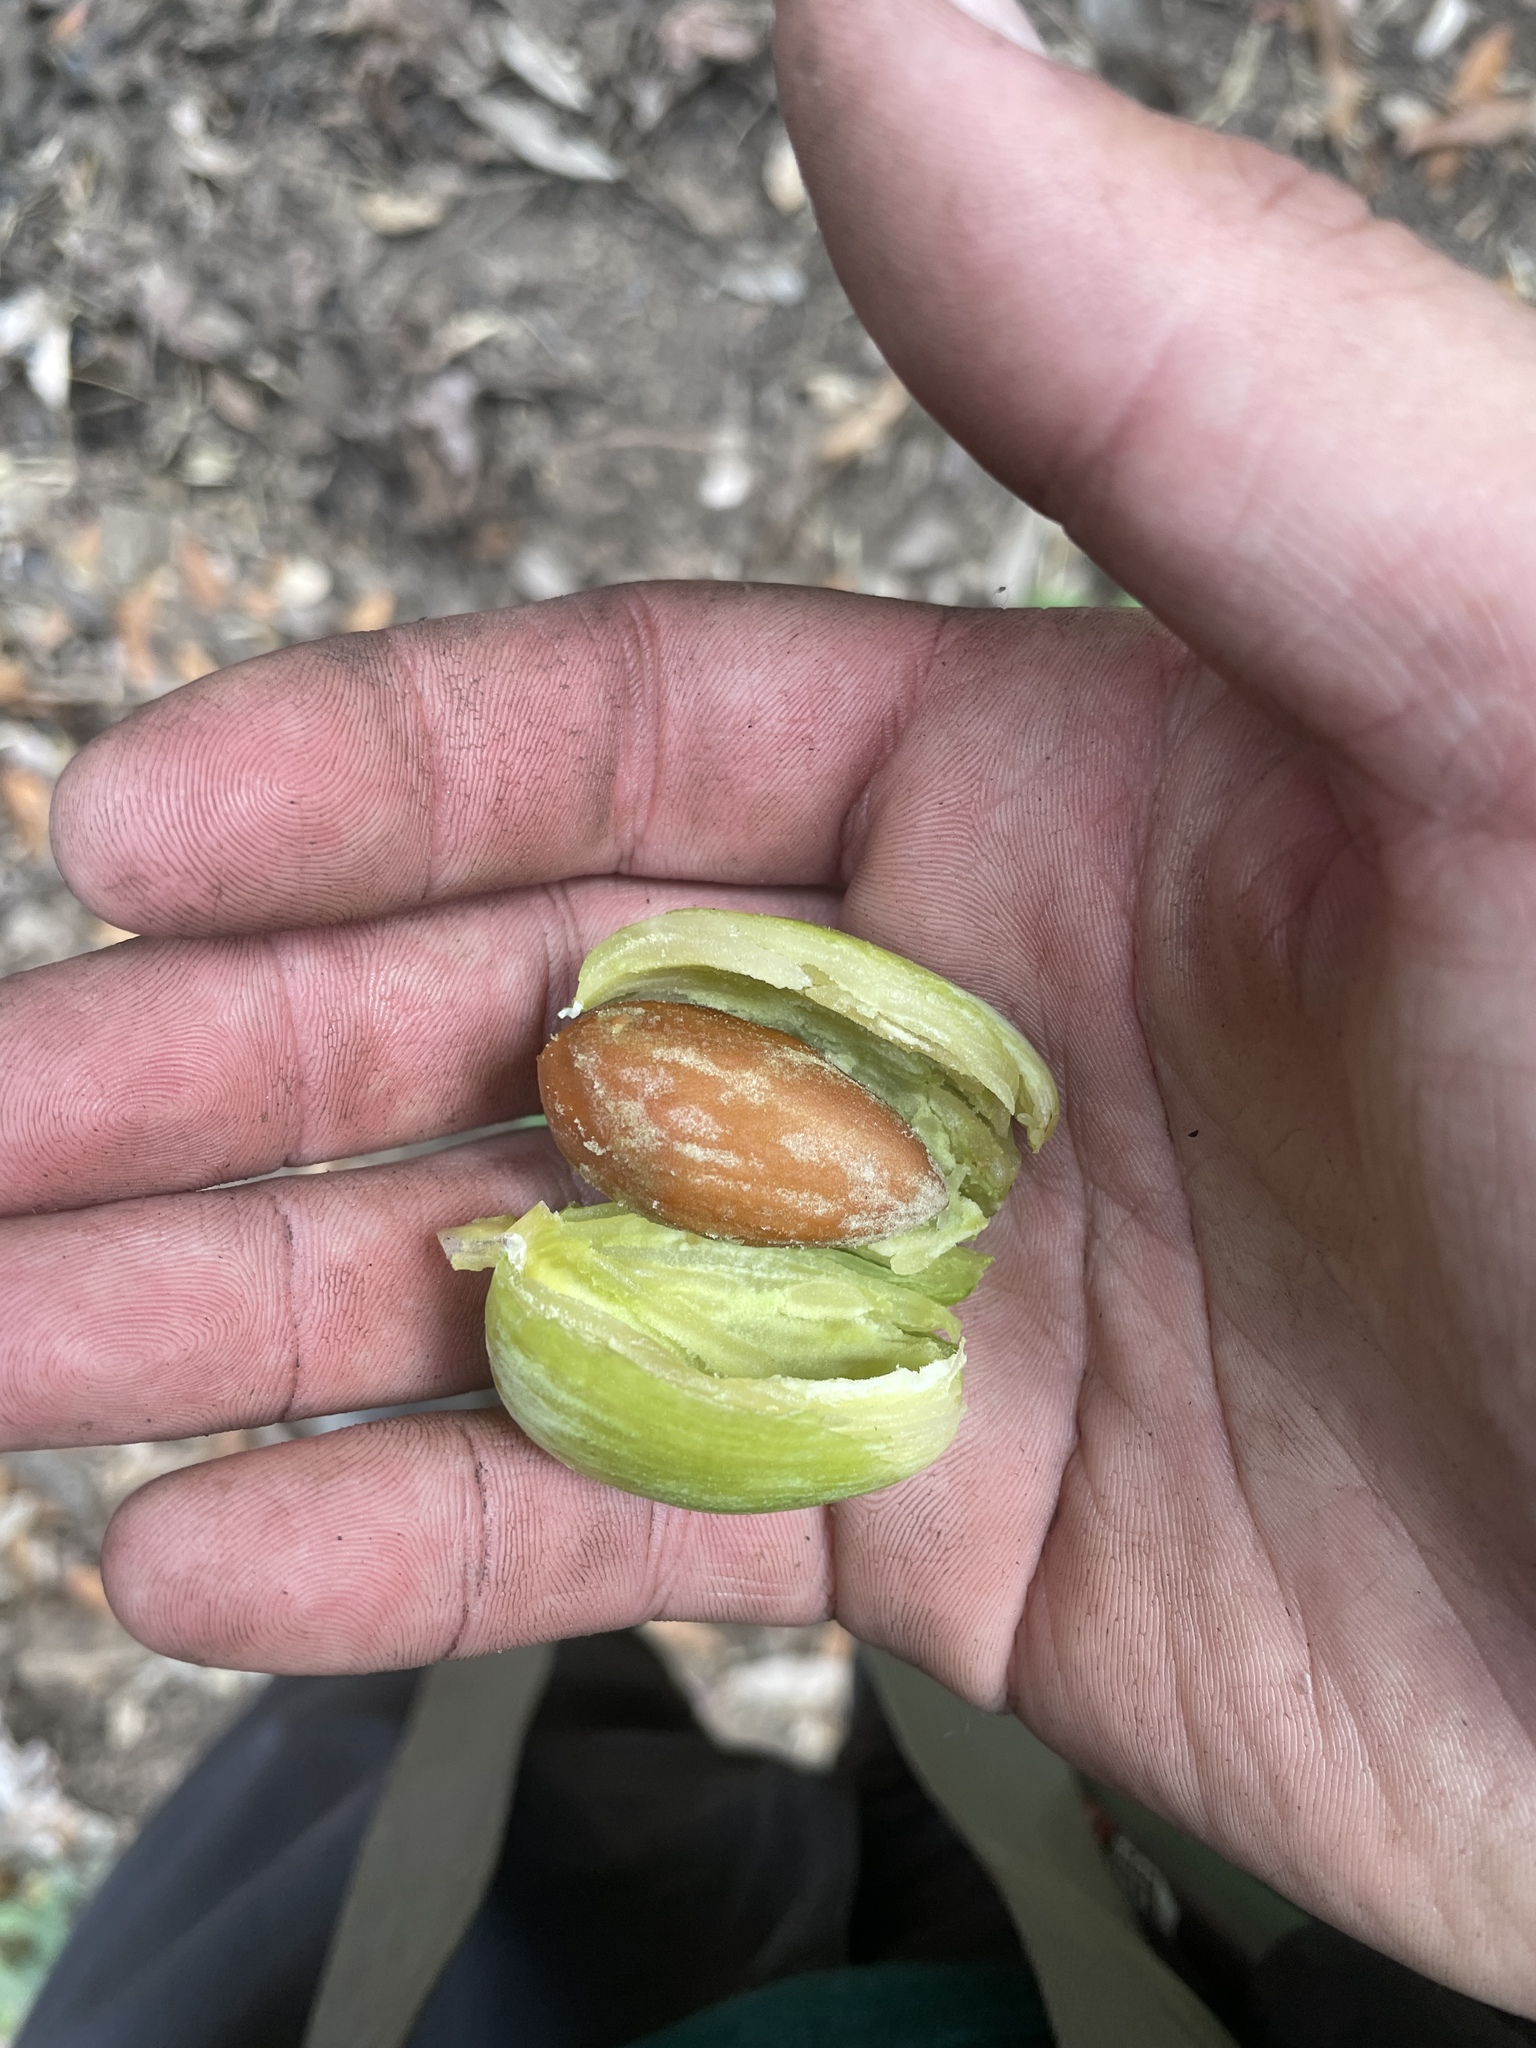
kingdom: Plantae
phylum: Tracheophyta
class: Pinopsida
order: Pinales
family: Taxaceae
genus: Torreya
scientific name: Torreya californica
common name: California torreya
